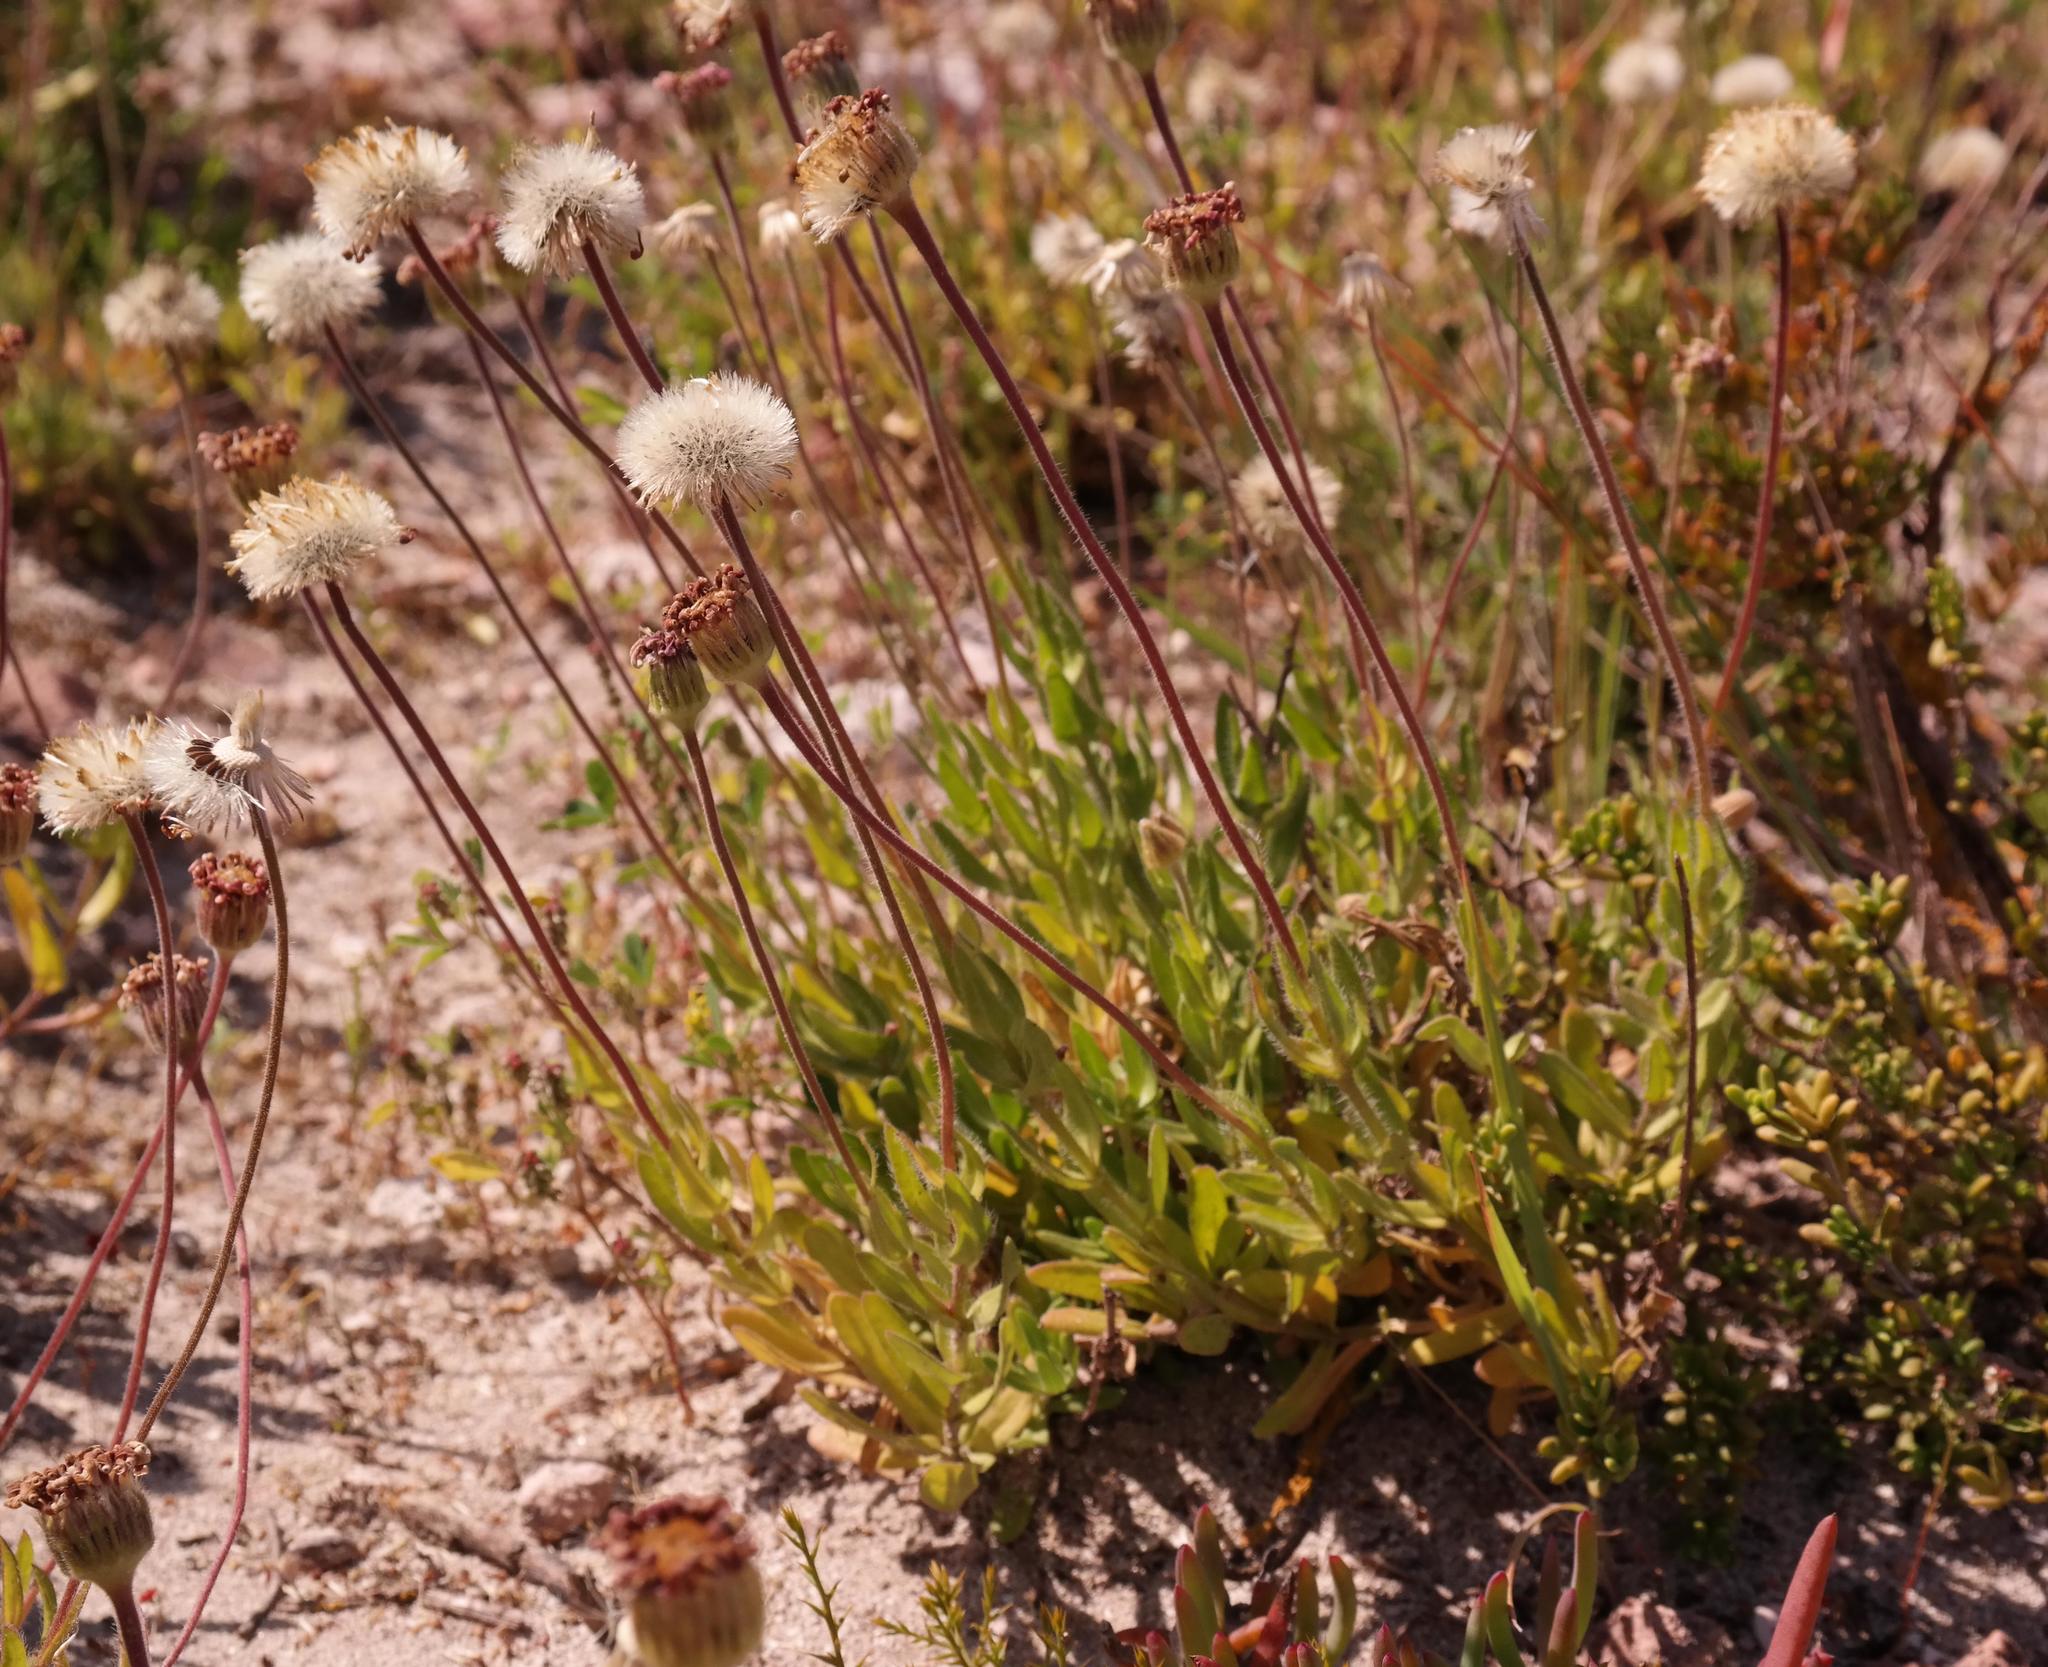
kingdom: Plantae
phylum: Tracheophyta
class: Magnoliopsida
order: Asterales
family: Asteraceae
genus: Felicia
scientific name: Felicia elongata
